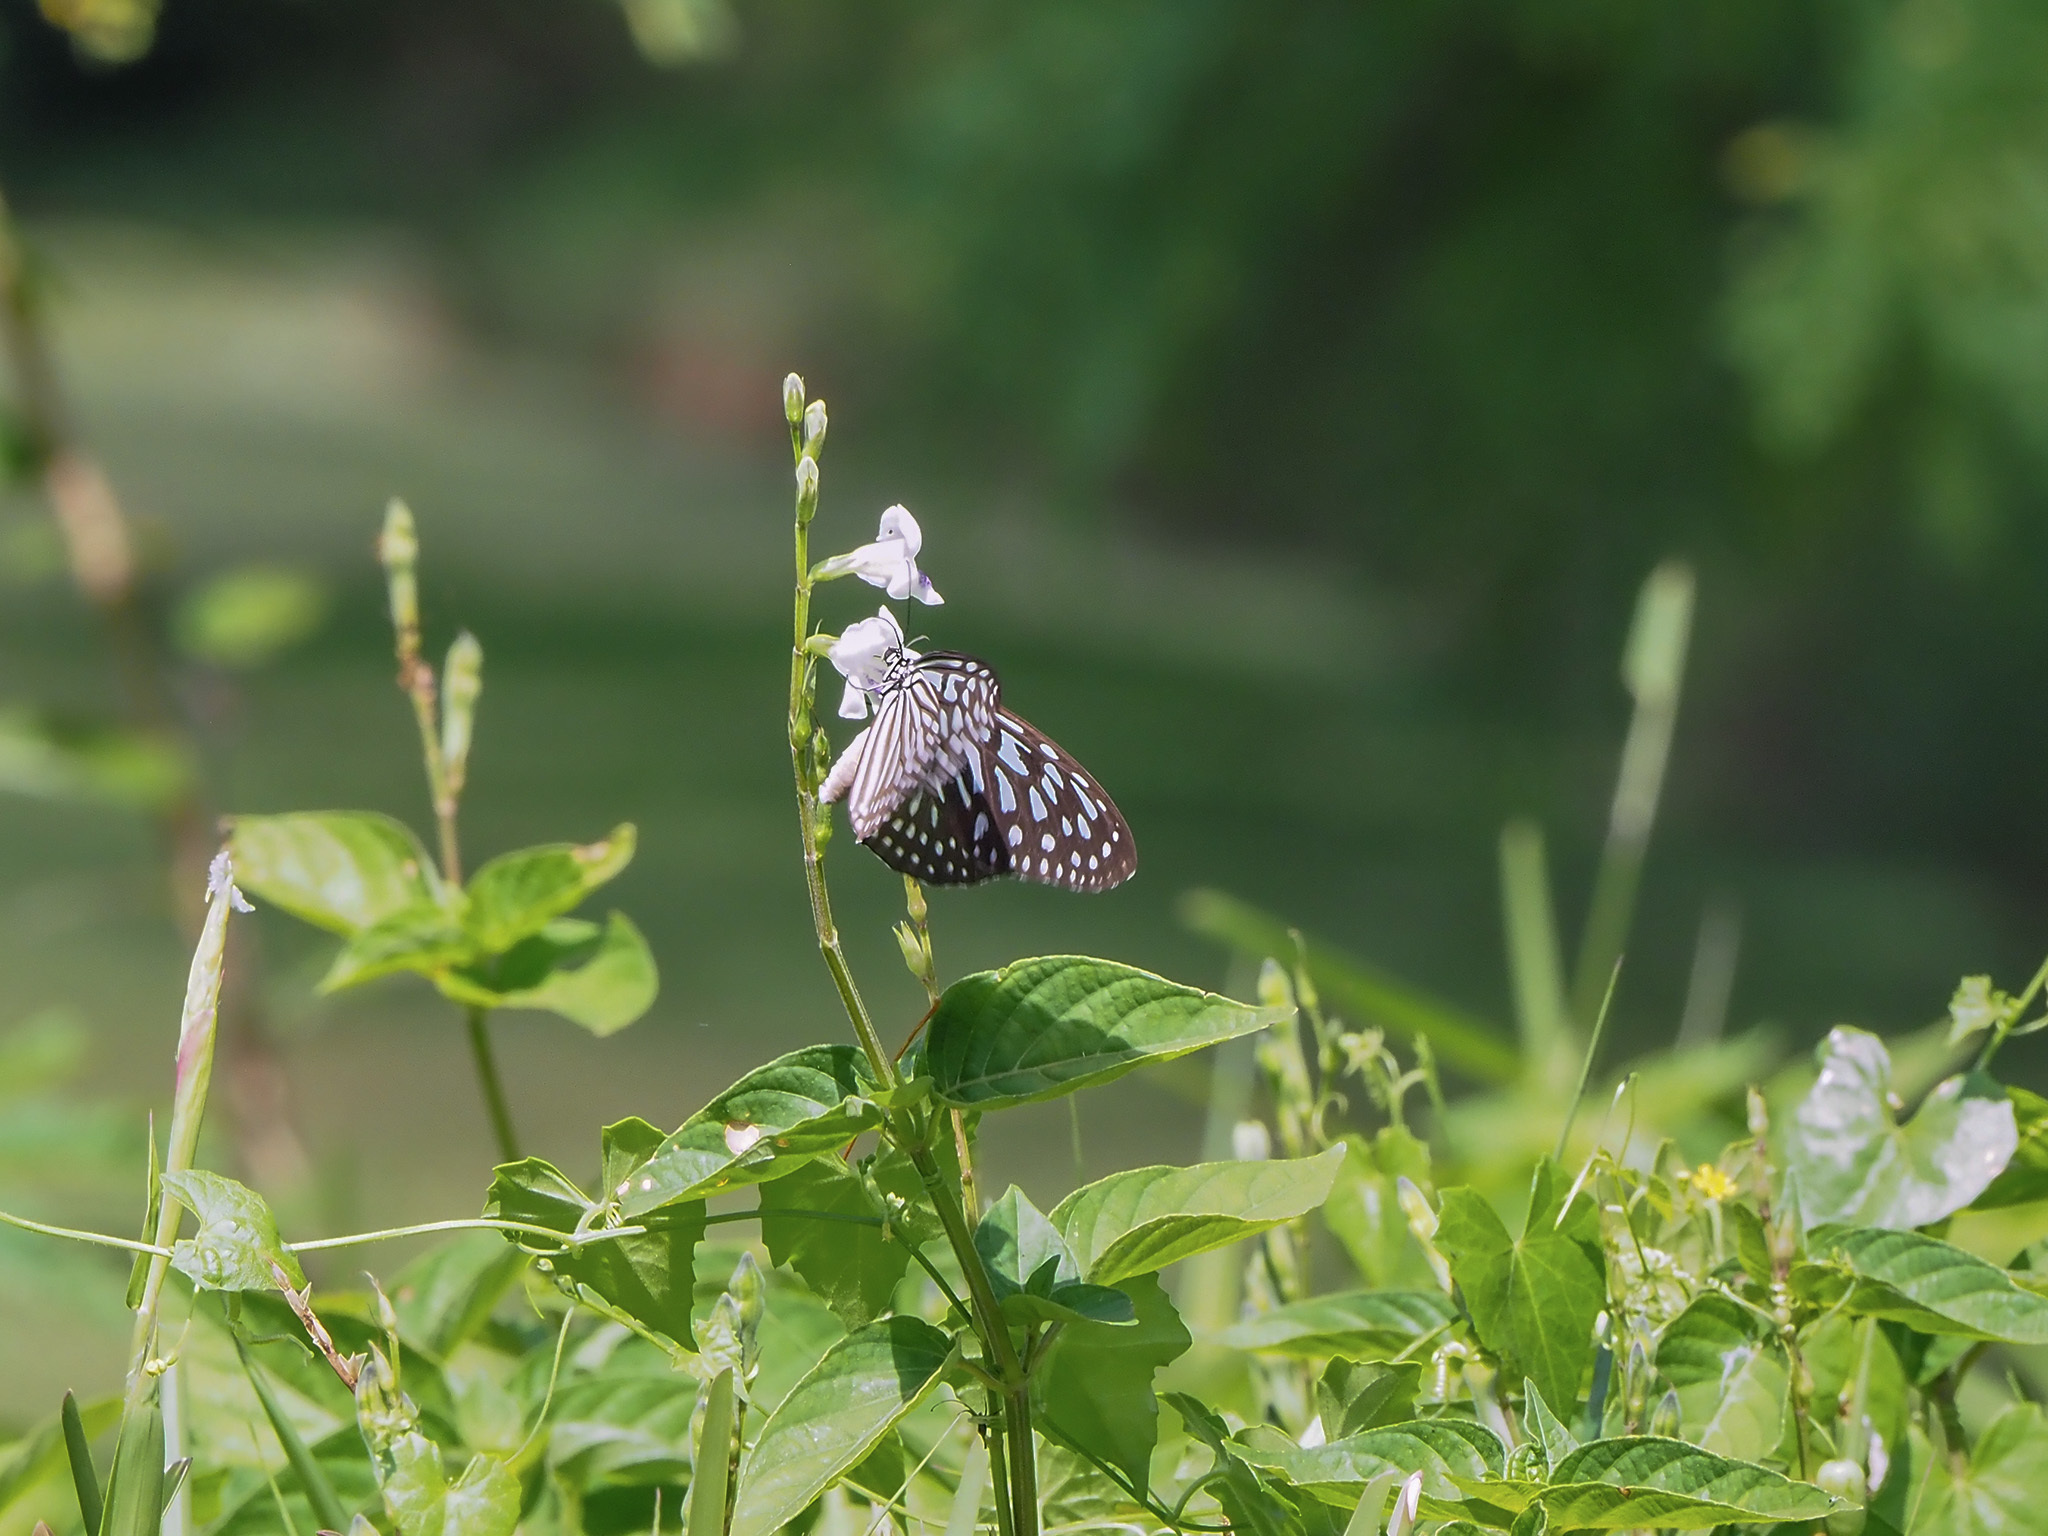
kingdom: Animalia
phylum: Arthropoda
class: Insecta
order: Lepidoptera
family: Nymphalidae
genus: Ideopsis
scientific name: Ideopsis vulgaris
